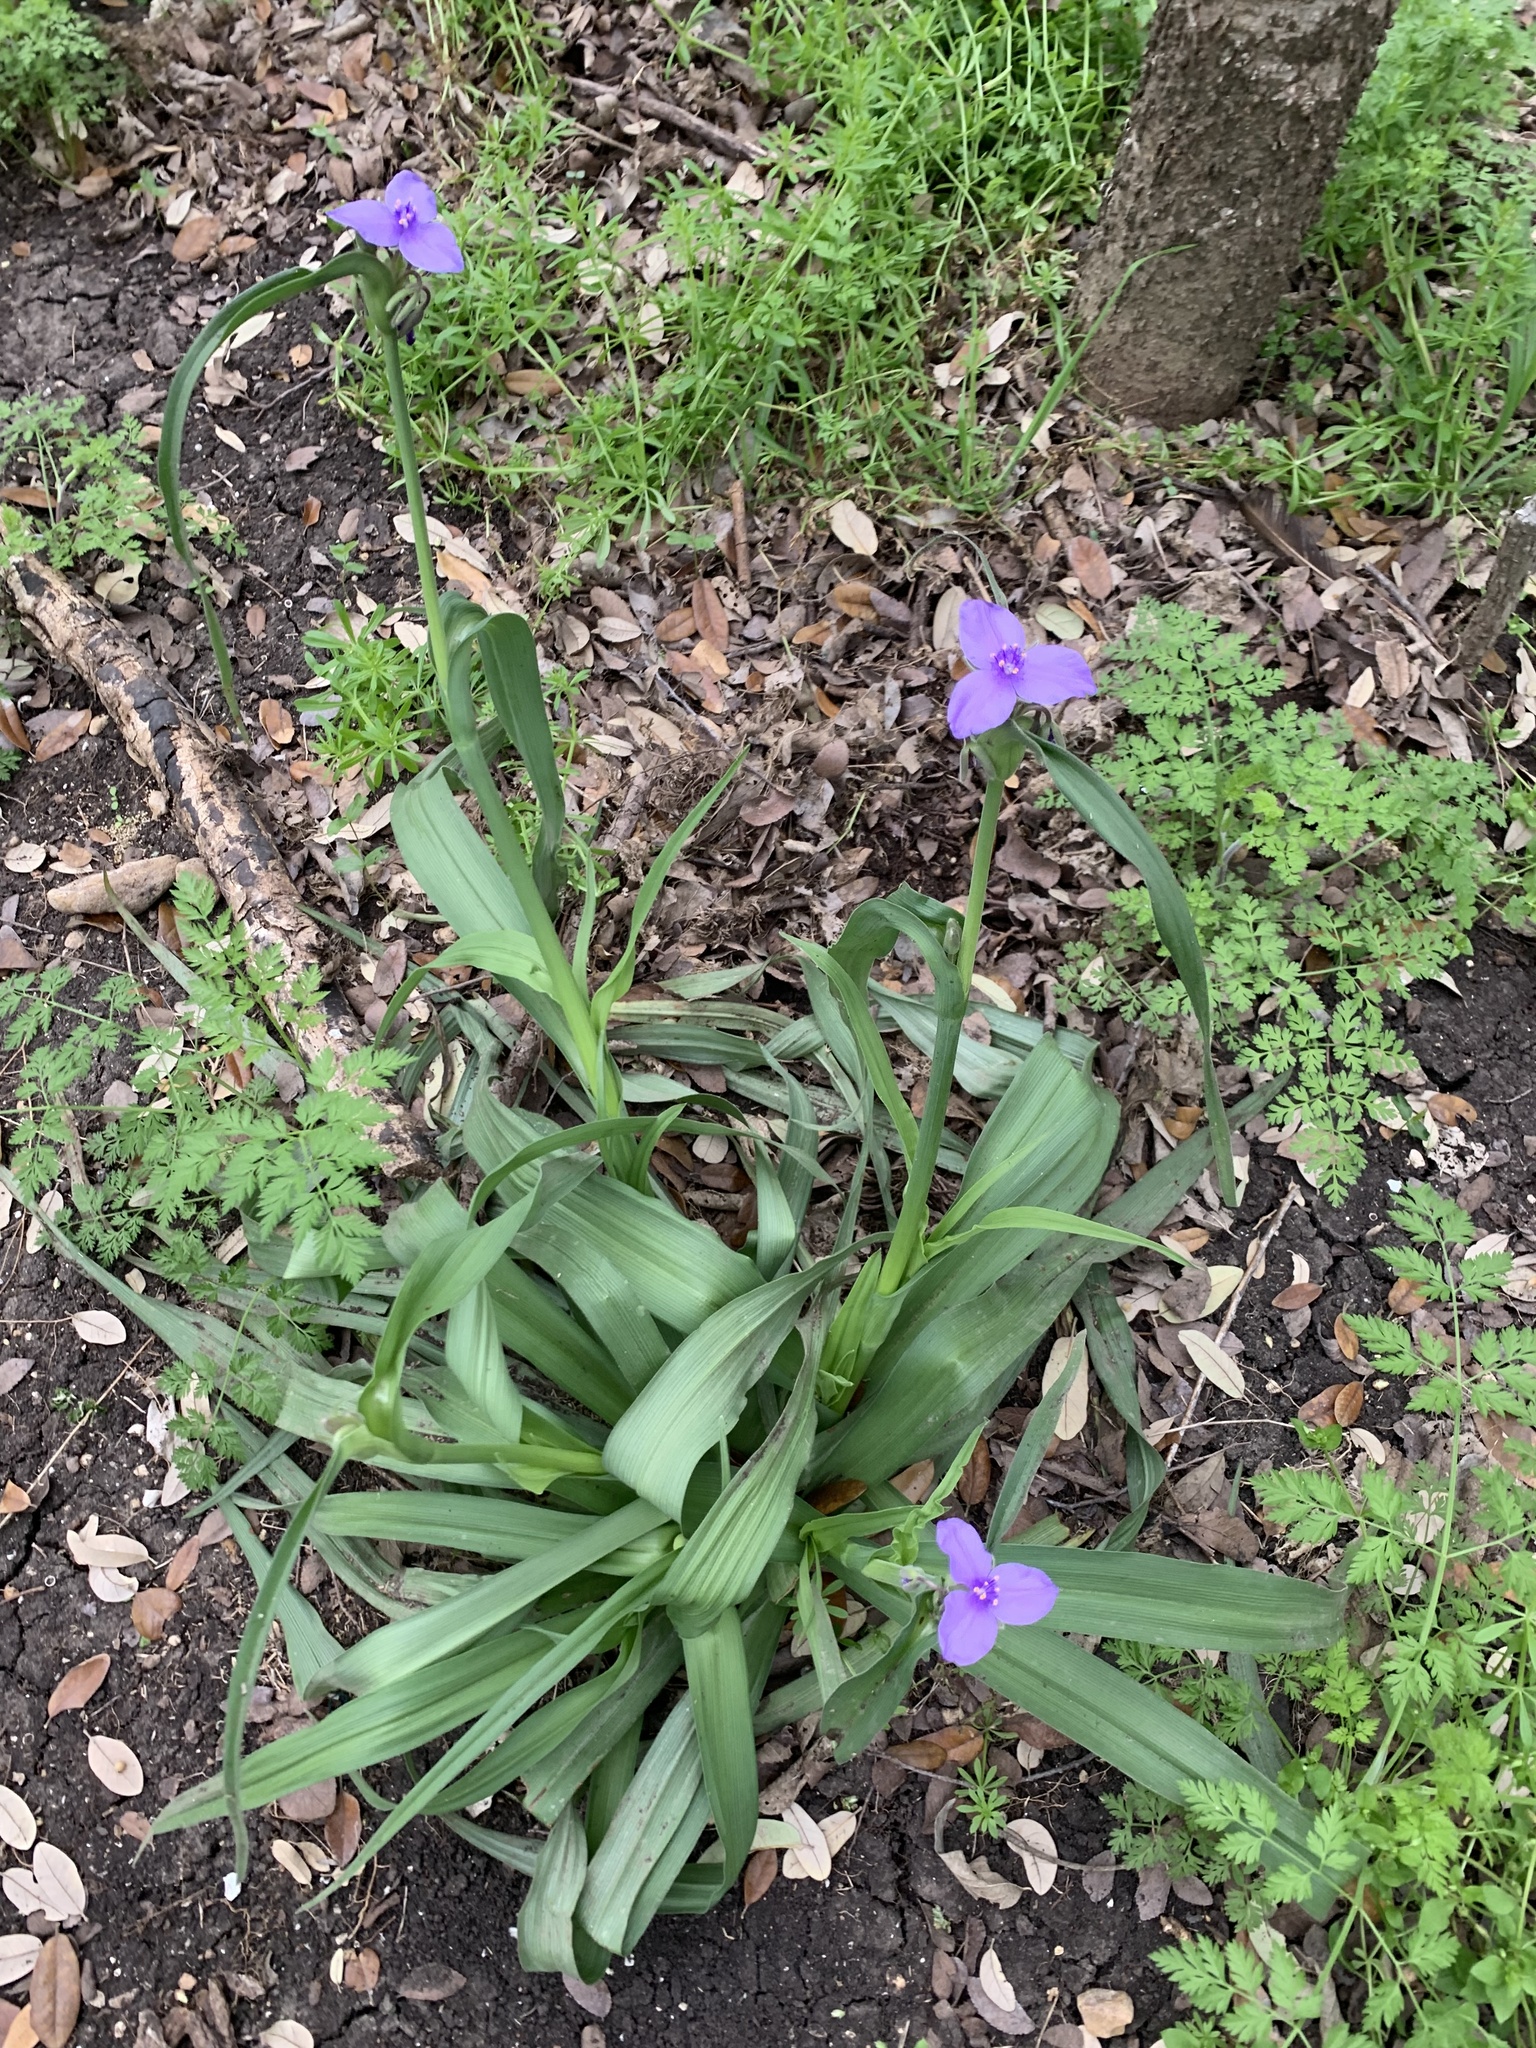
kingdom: Plantae
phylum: Tracheophyta
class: Liliopsida
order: Commelinales
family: Commelinaceae
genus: Tradescantia
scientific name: Tradescantia gigantea
